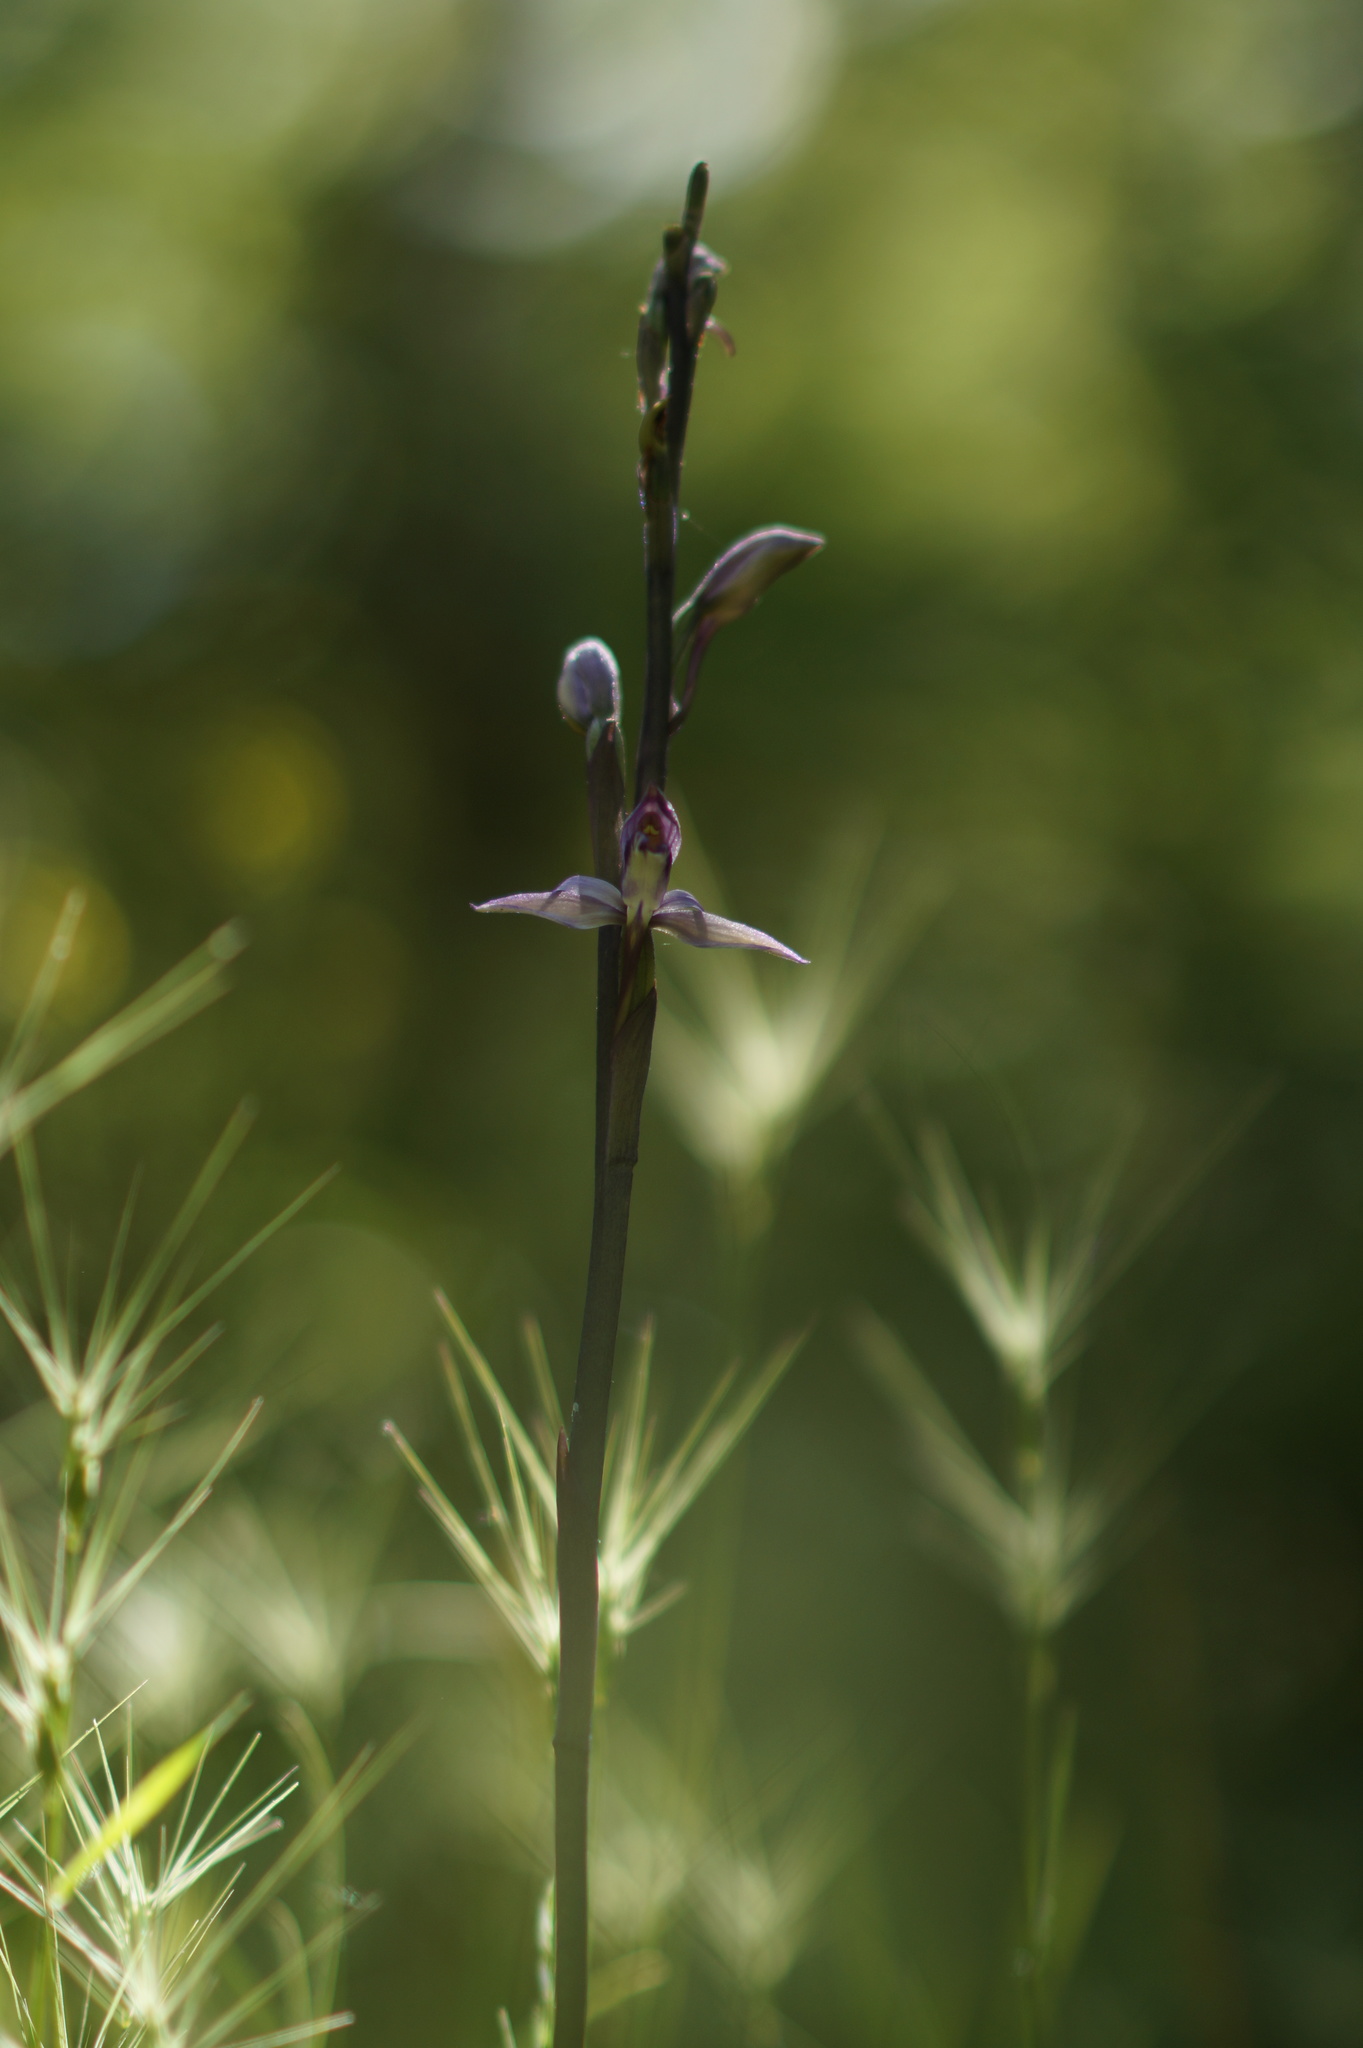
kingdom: Plantae
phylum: Tracheophyta
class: Liliopsida
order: Asparagales
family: Orchidaceae
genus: Limodorum
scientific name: Limodorum abortivum
